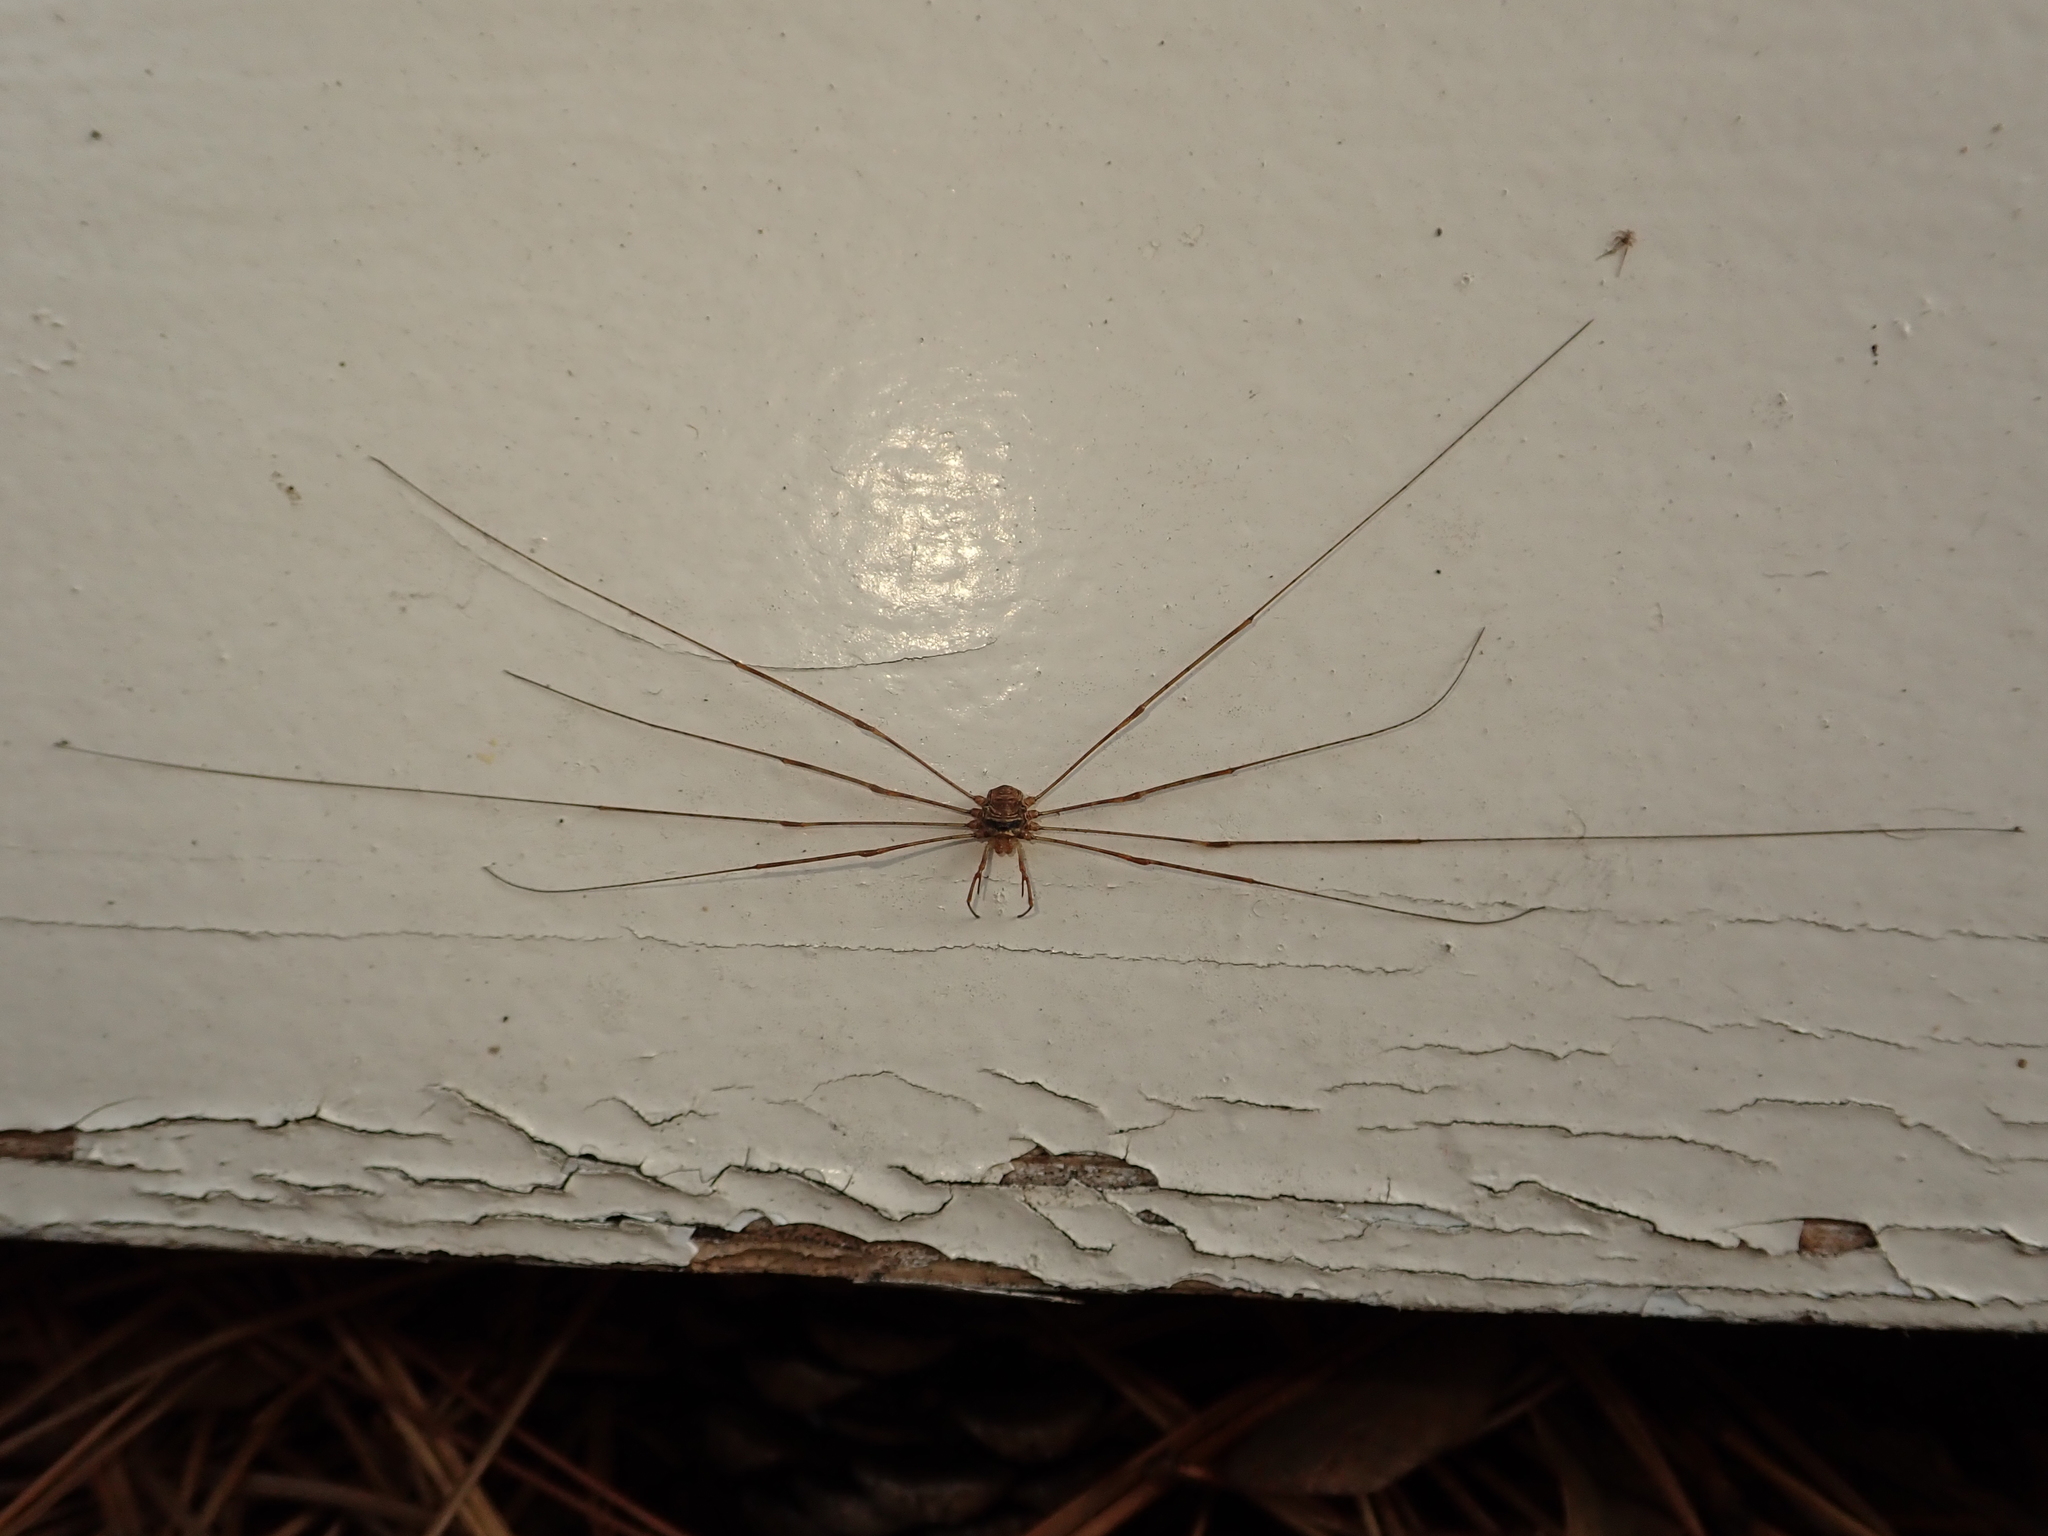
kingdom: Animalia
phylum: Arthropoda
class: Arachnida
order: Opiliones
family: Phalangiidae
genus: Dicranopalpus
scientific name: Dicranopalpus ramosus
